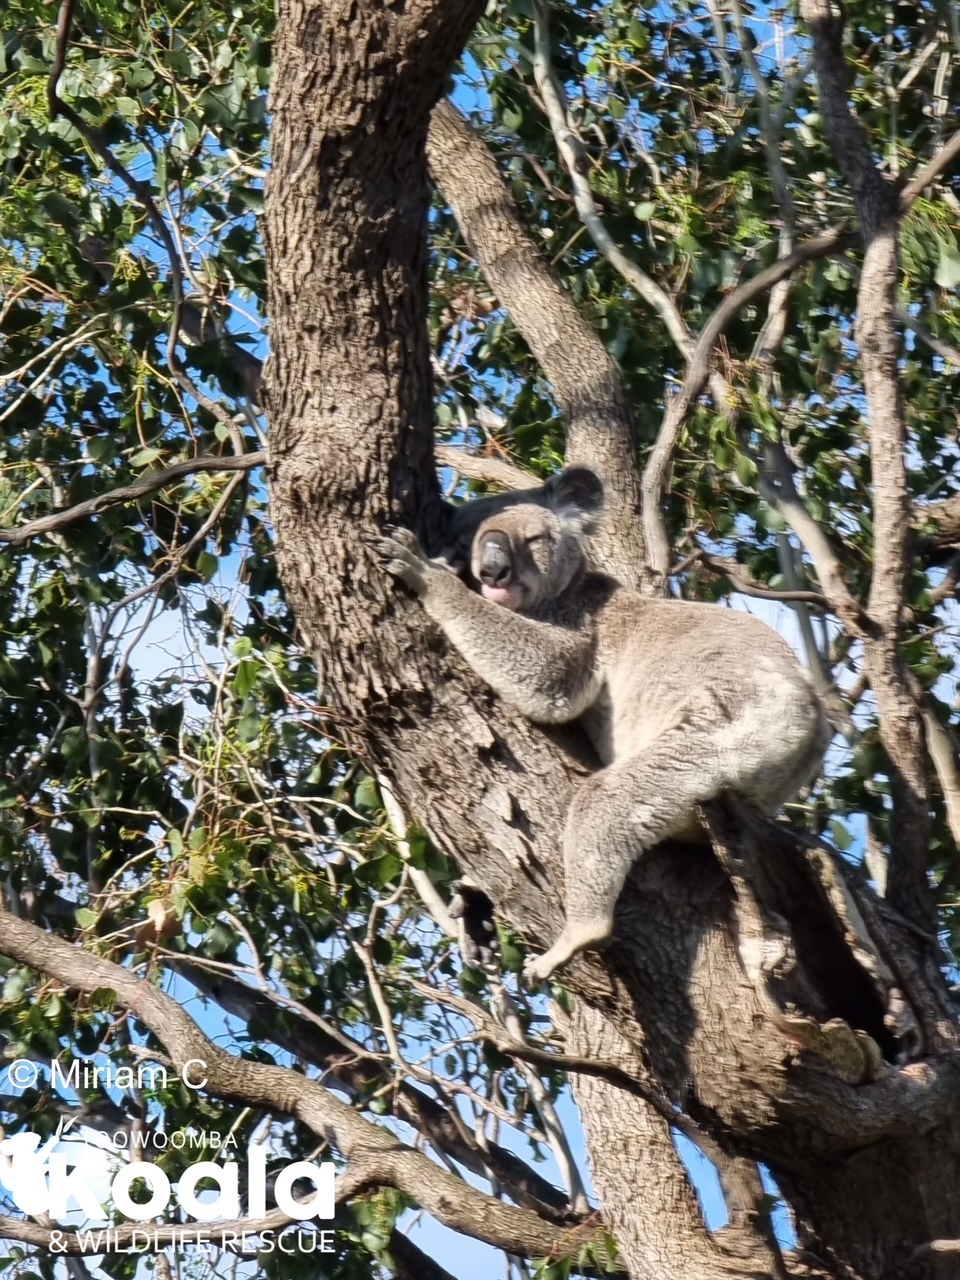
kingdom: Animalia
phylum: Chordata
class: Mammalia
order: Diprotodontia
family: Phascolarctidae
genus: Phascolarctos
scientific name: Phascolarctos cinereus
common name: Koala
